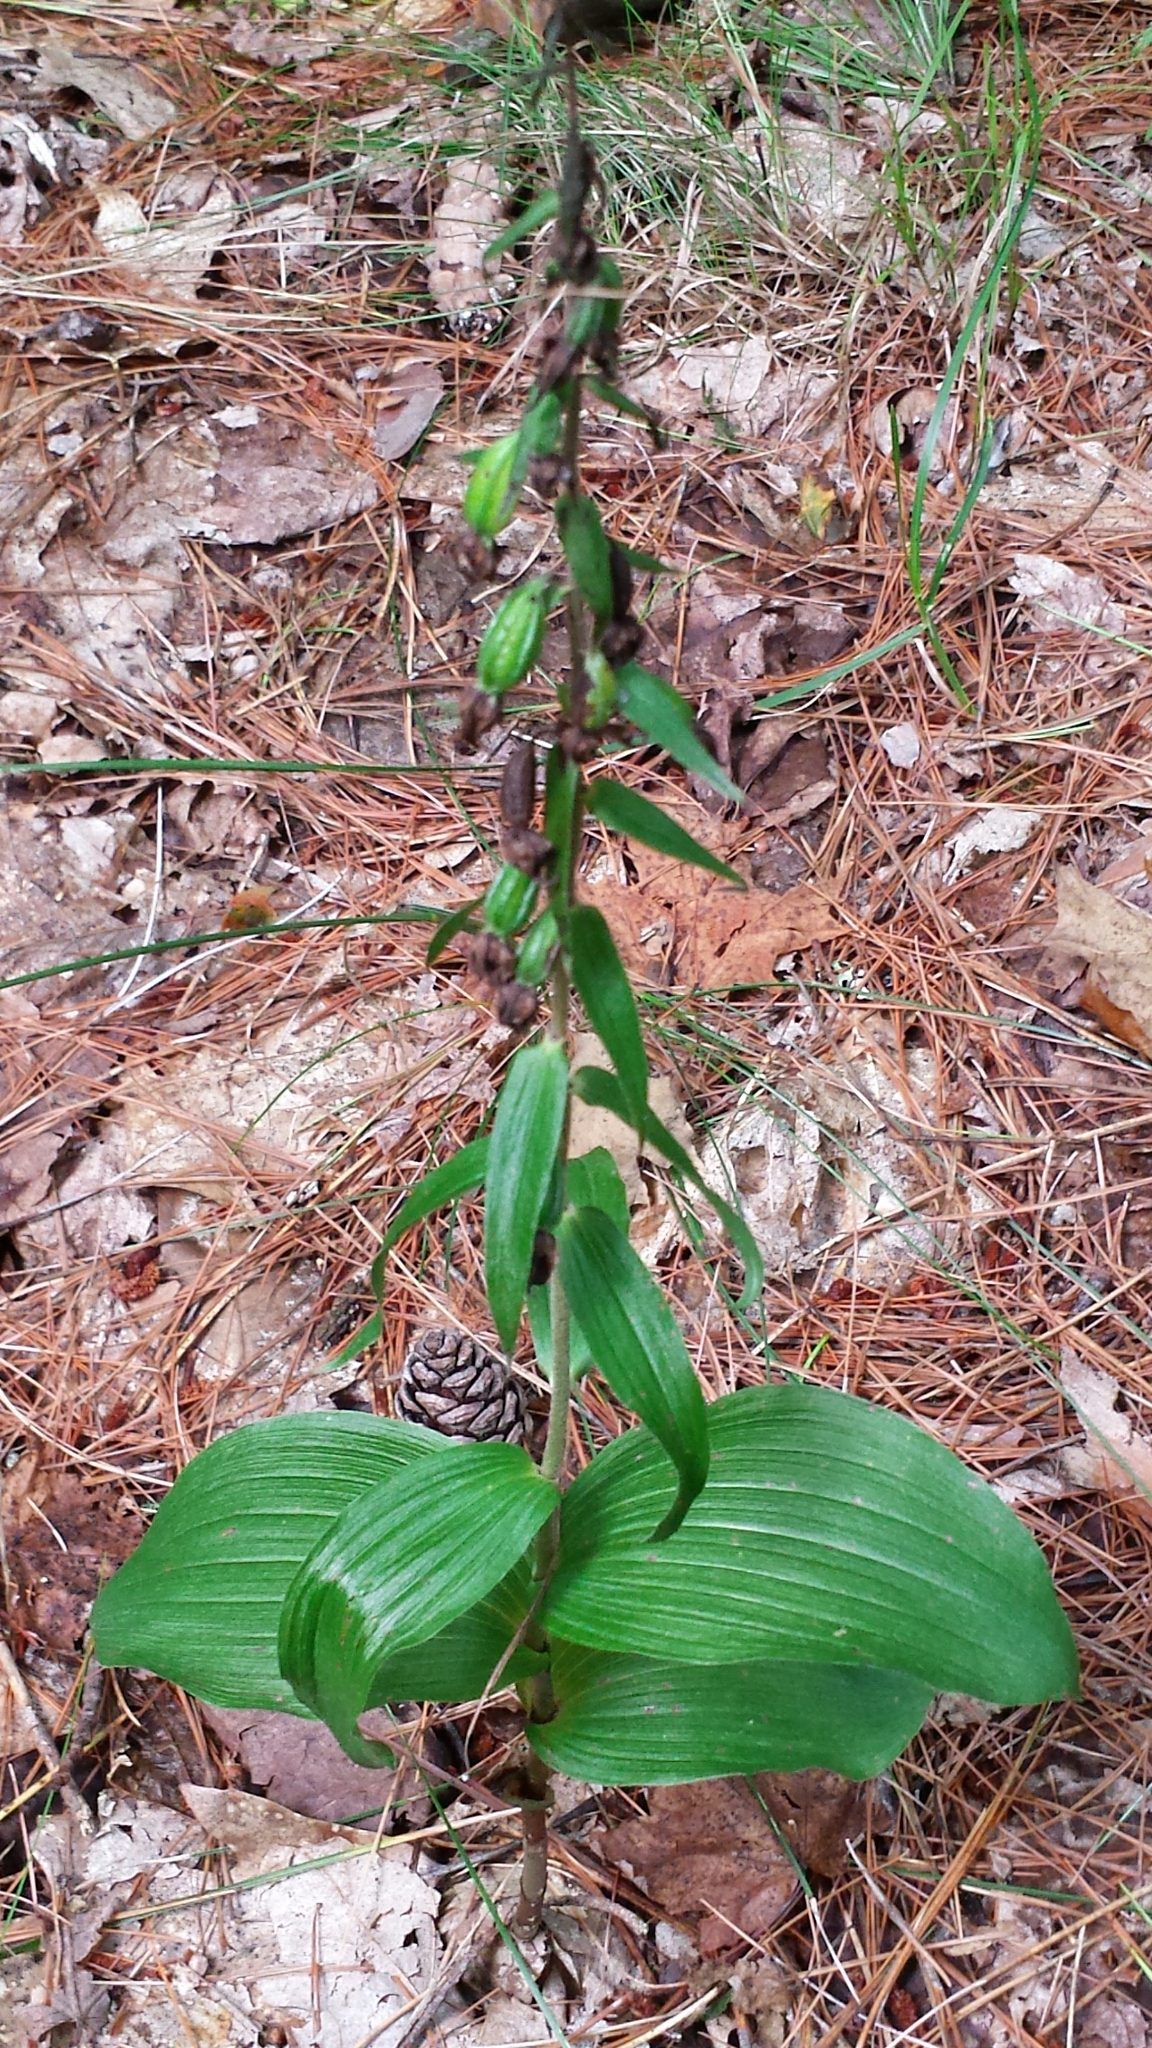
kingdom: Plantae
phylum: Tracheophyta
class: Liliopsida
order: Asparagales
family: Orchidaceae
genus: Epipactis
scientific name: Epipactis helleborine
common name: Broad-leaved helleborine
